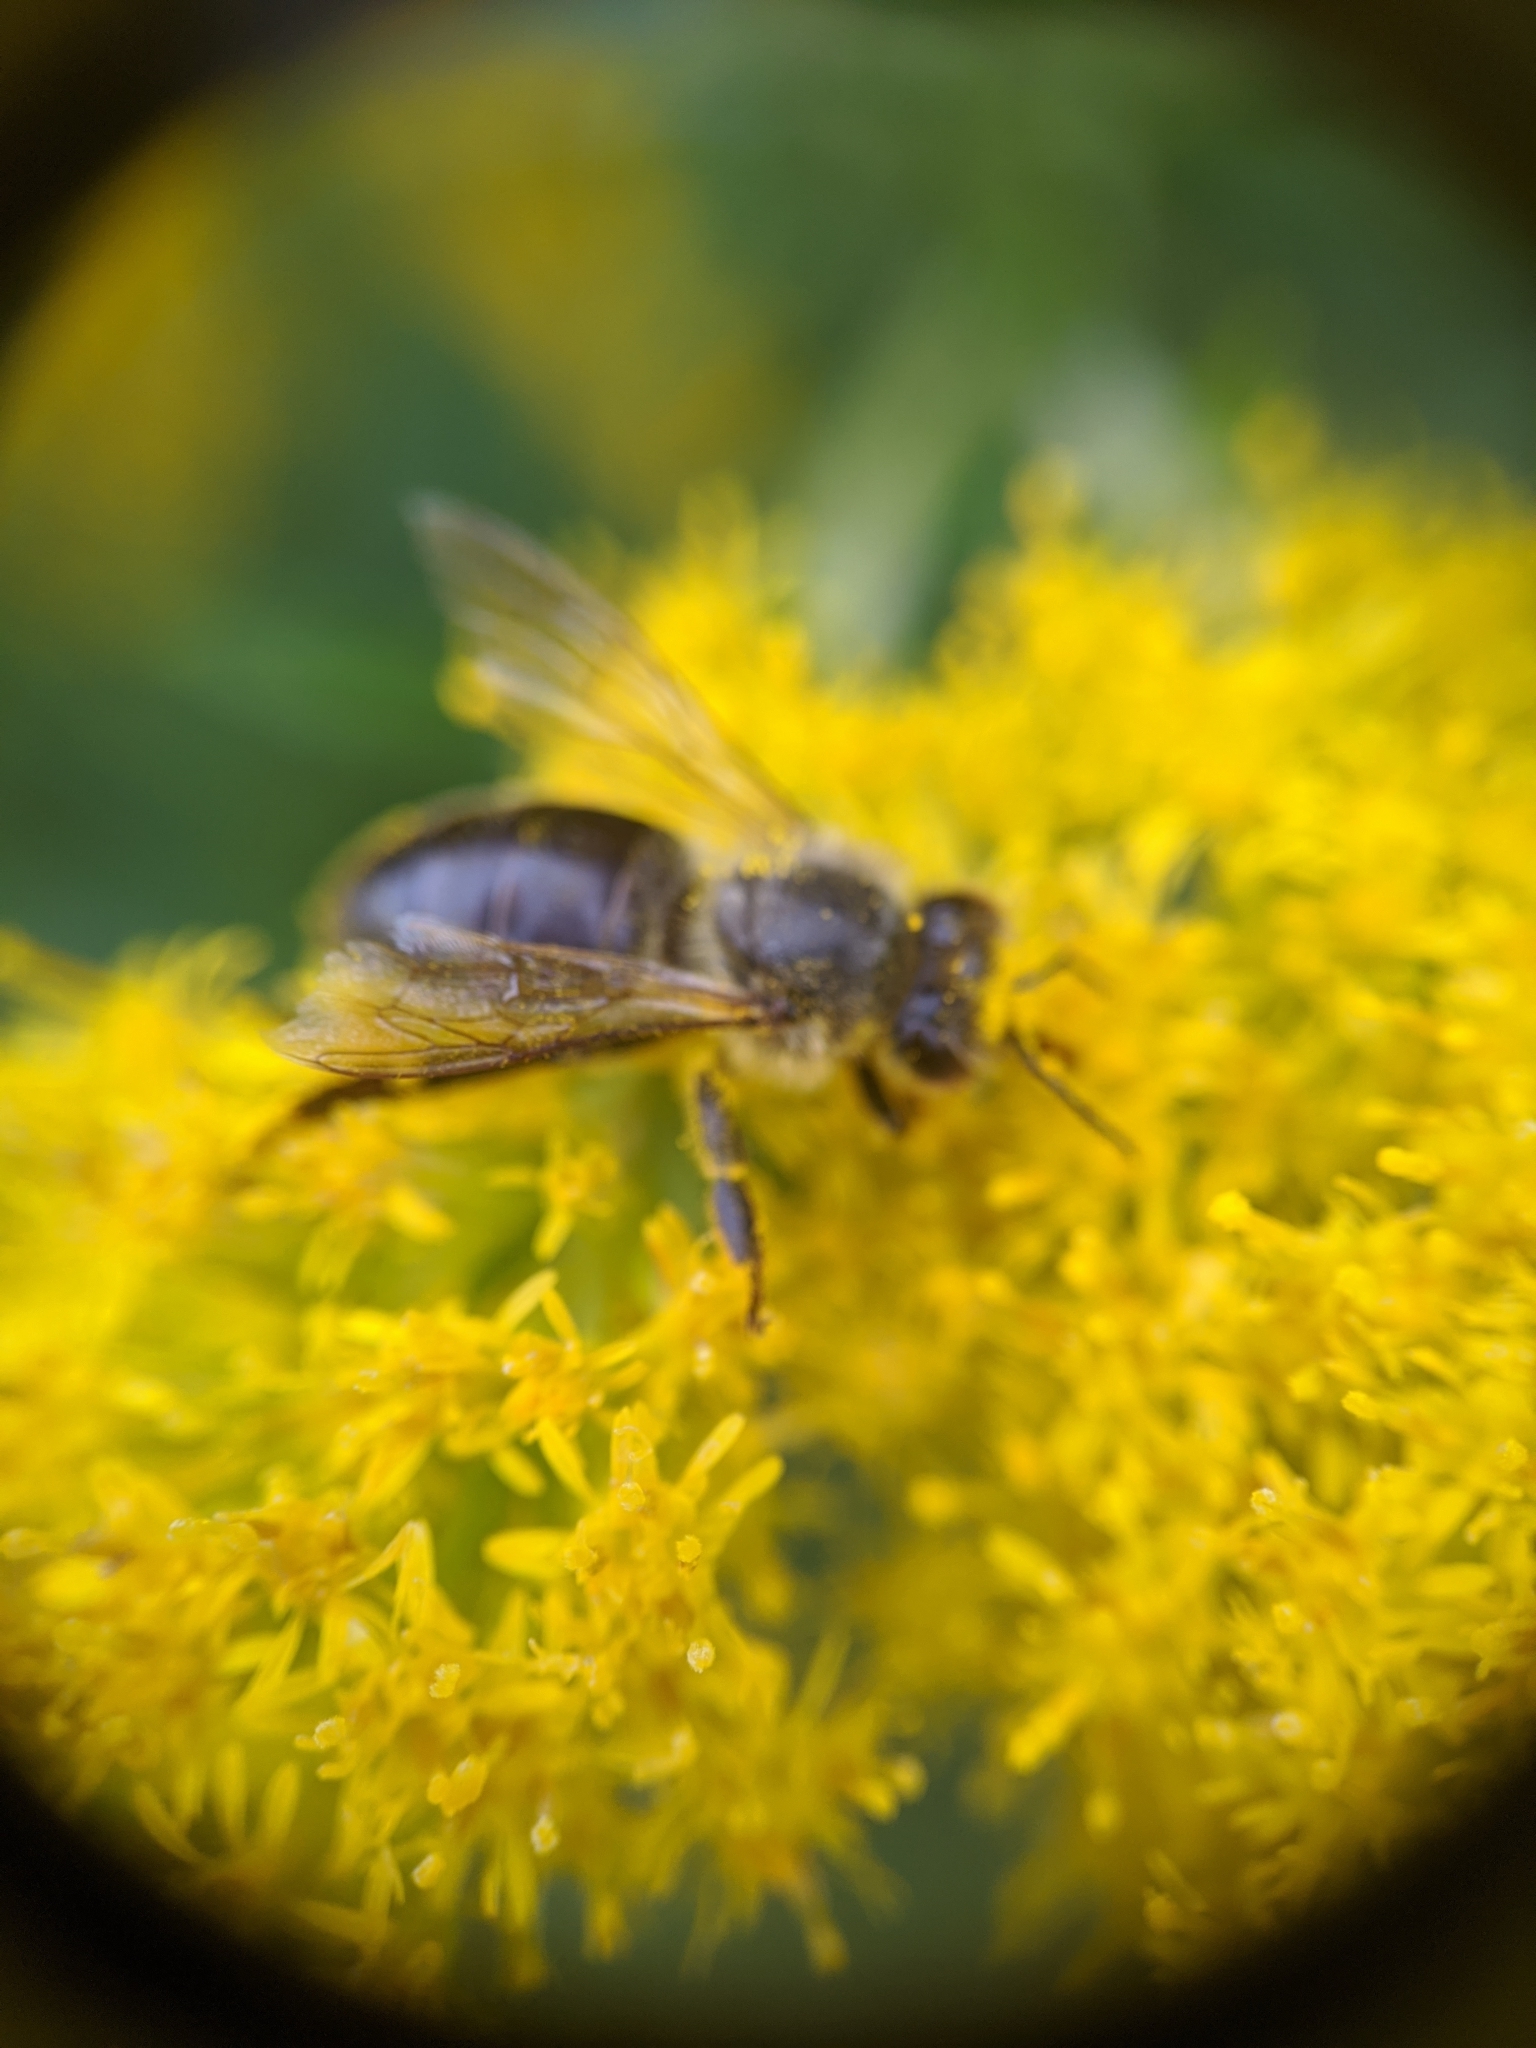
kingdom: Animalia
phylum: Arthropoda
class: Insecta
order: Hymenoptera
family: Apidae
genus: Apis
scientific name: Apis mellifera
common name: Honey bee
